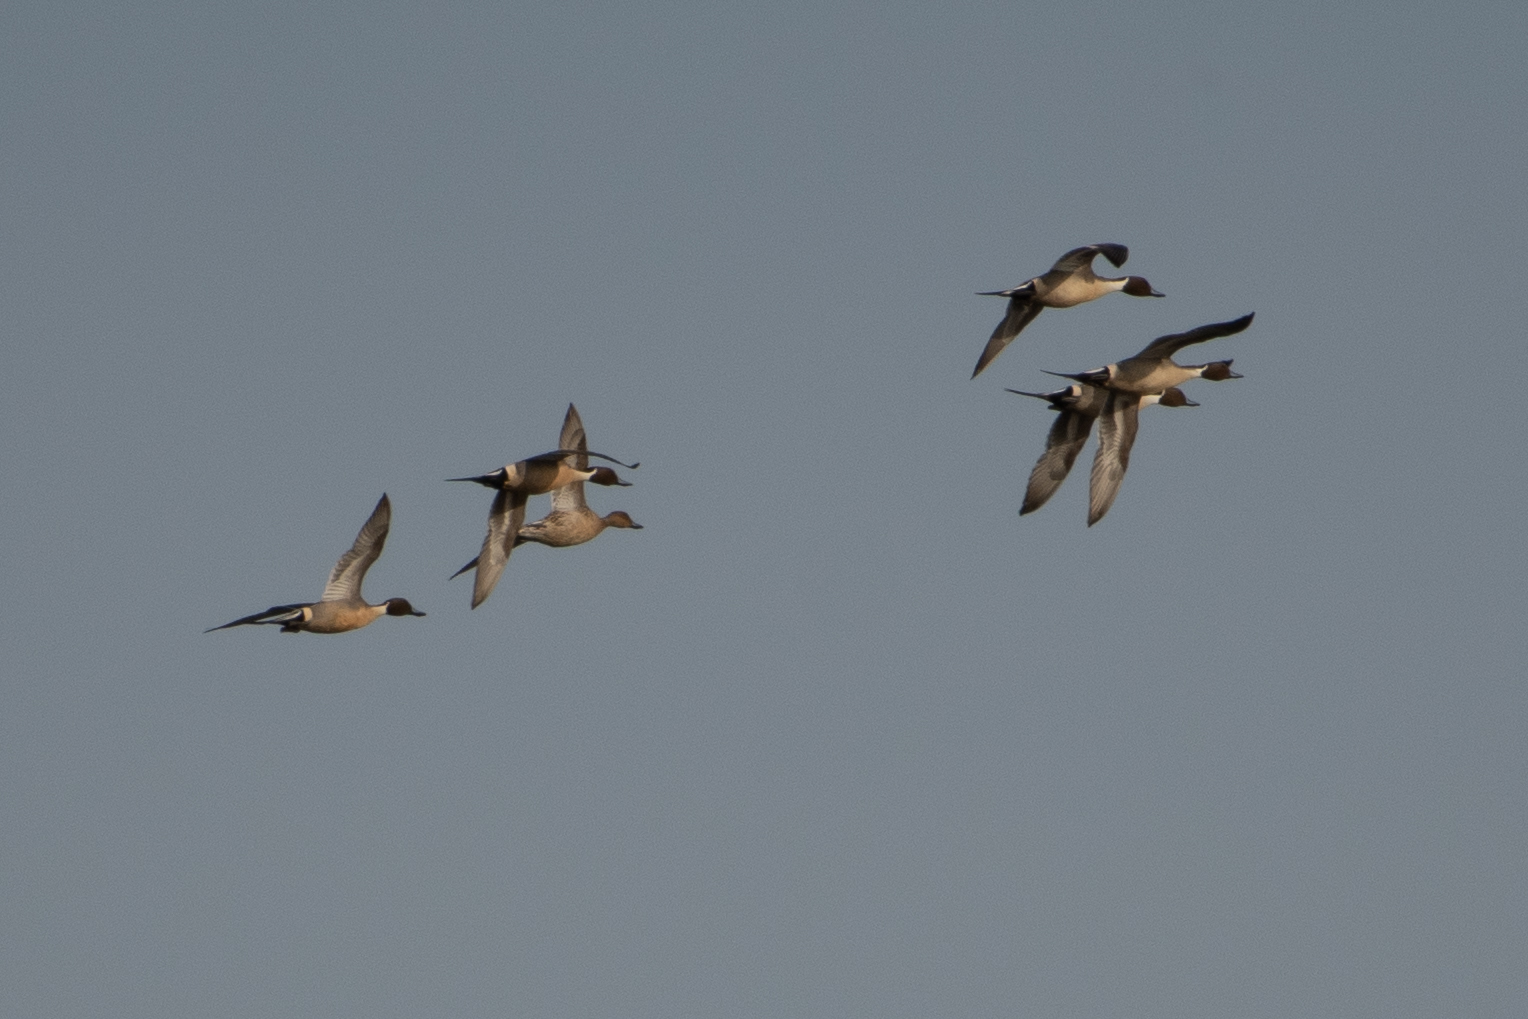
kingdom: Animalia
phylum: Chordata
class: Aves
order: Anseriformes
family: Anatidae
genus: Anas
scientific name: Anas acuta
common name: Northern pintail
